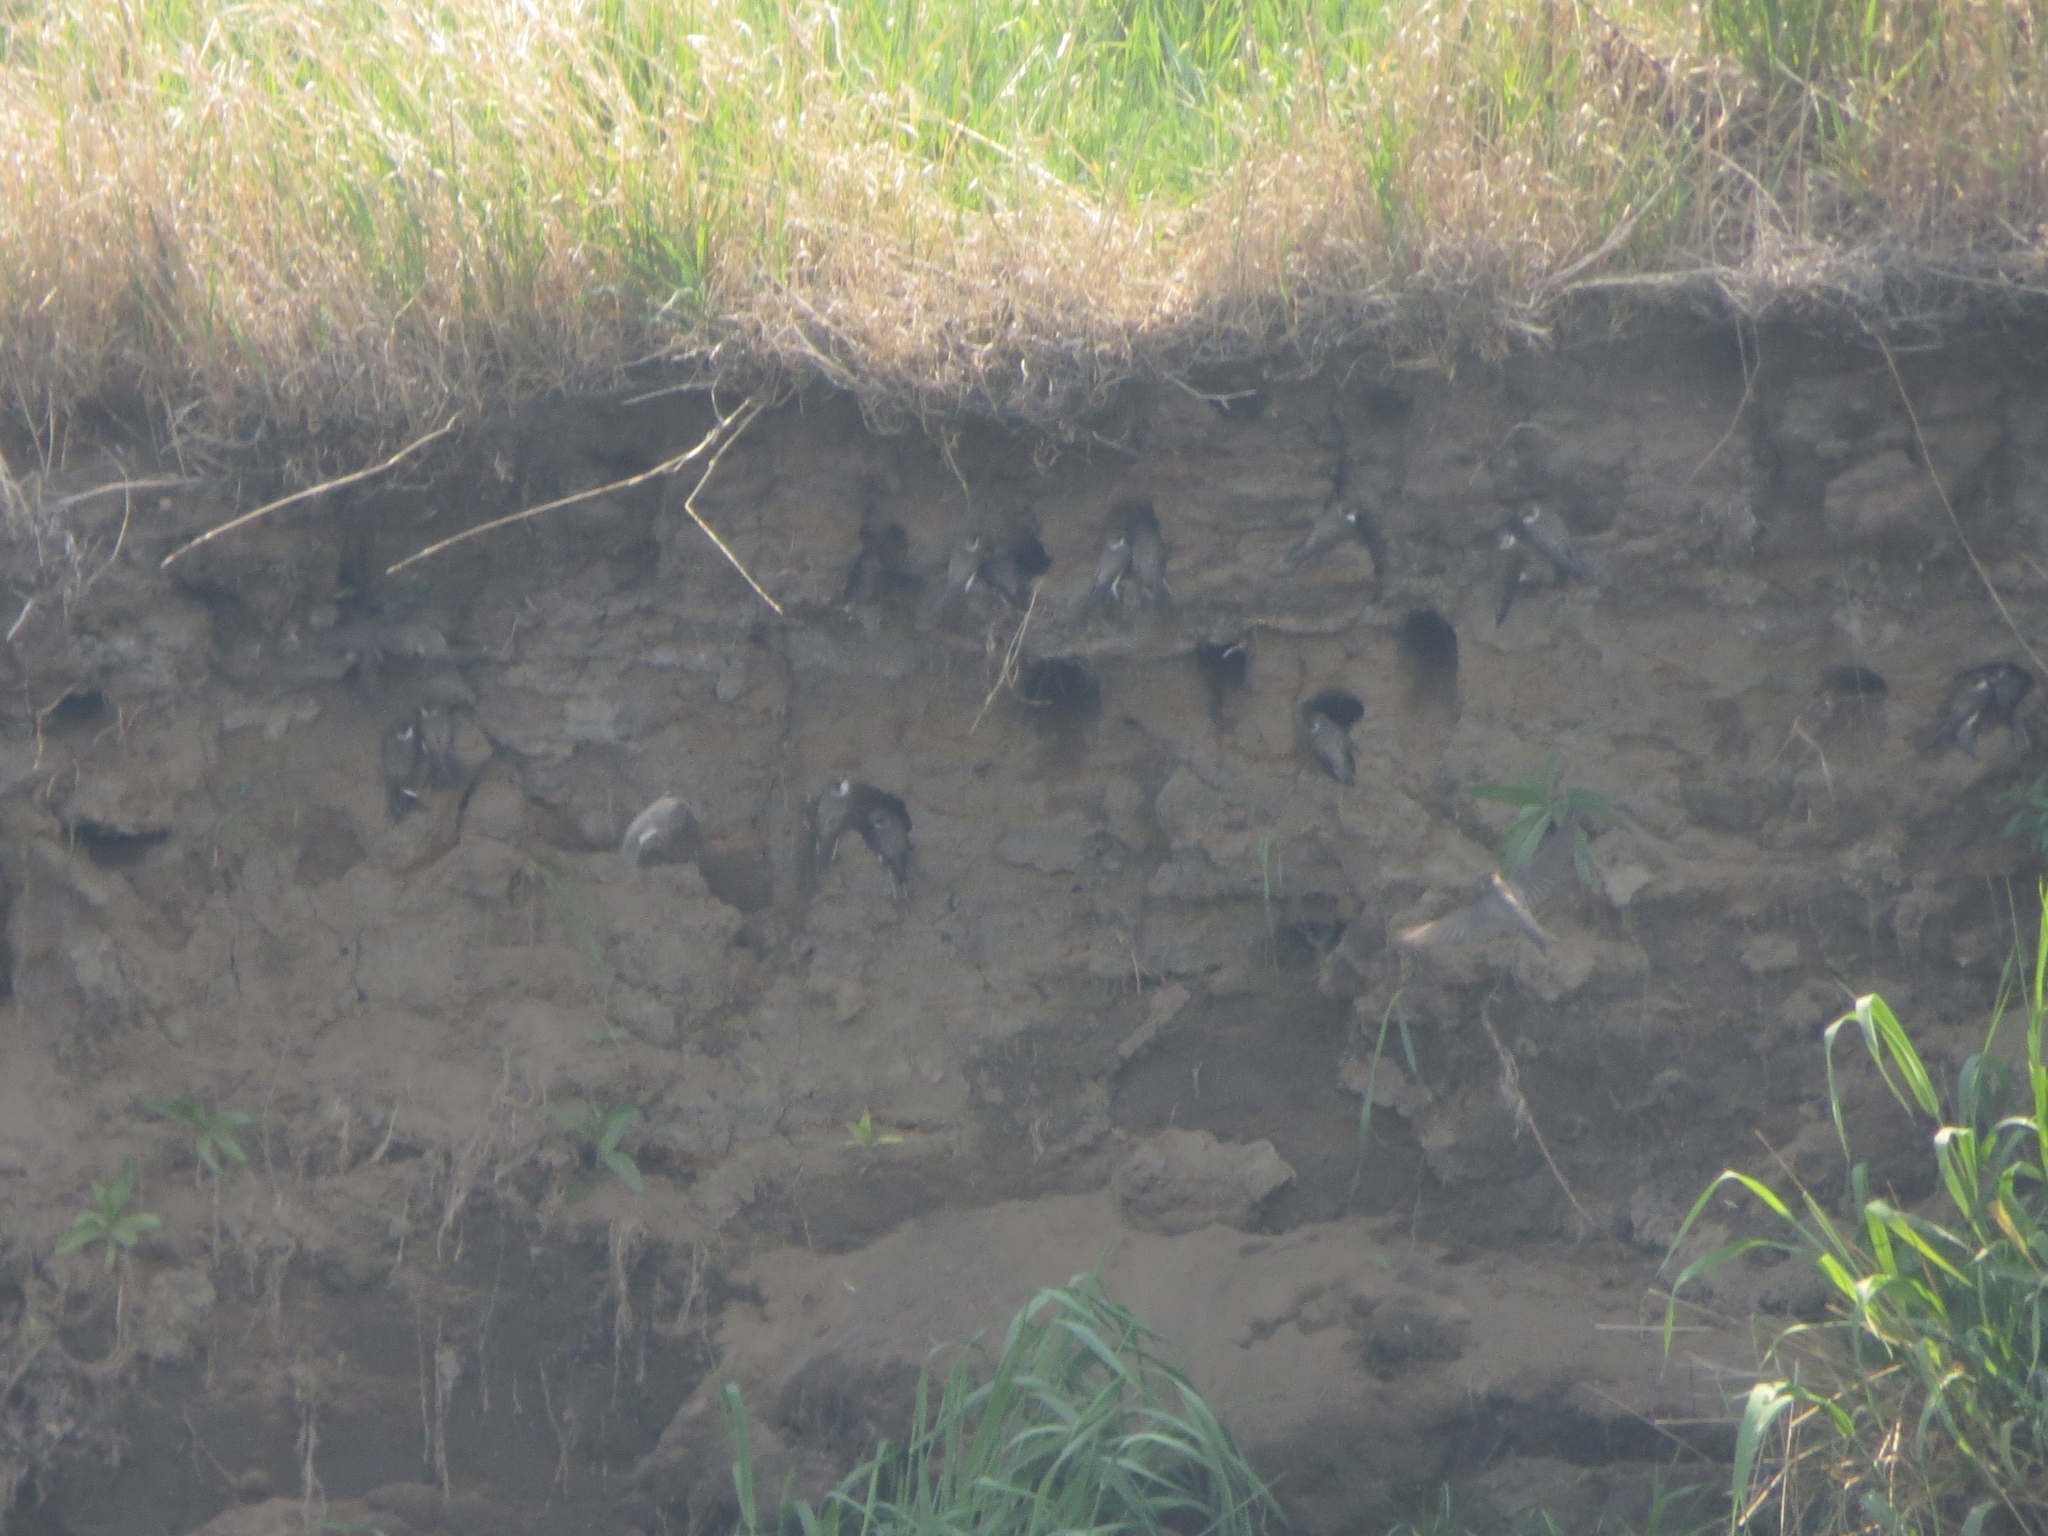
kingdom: Animalia
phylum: Chordata
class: Aves
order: Passeriformes
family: Hirundinidae
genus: Riparia
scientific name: Riparia riparia
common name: Sand martin
